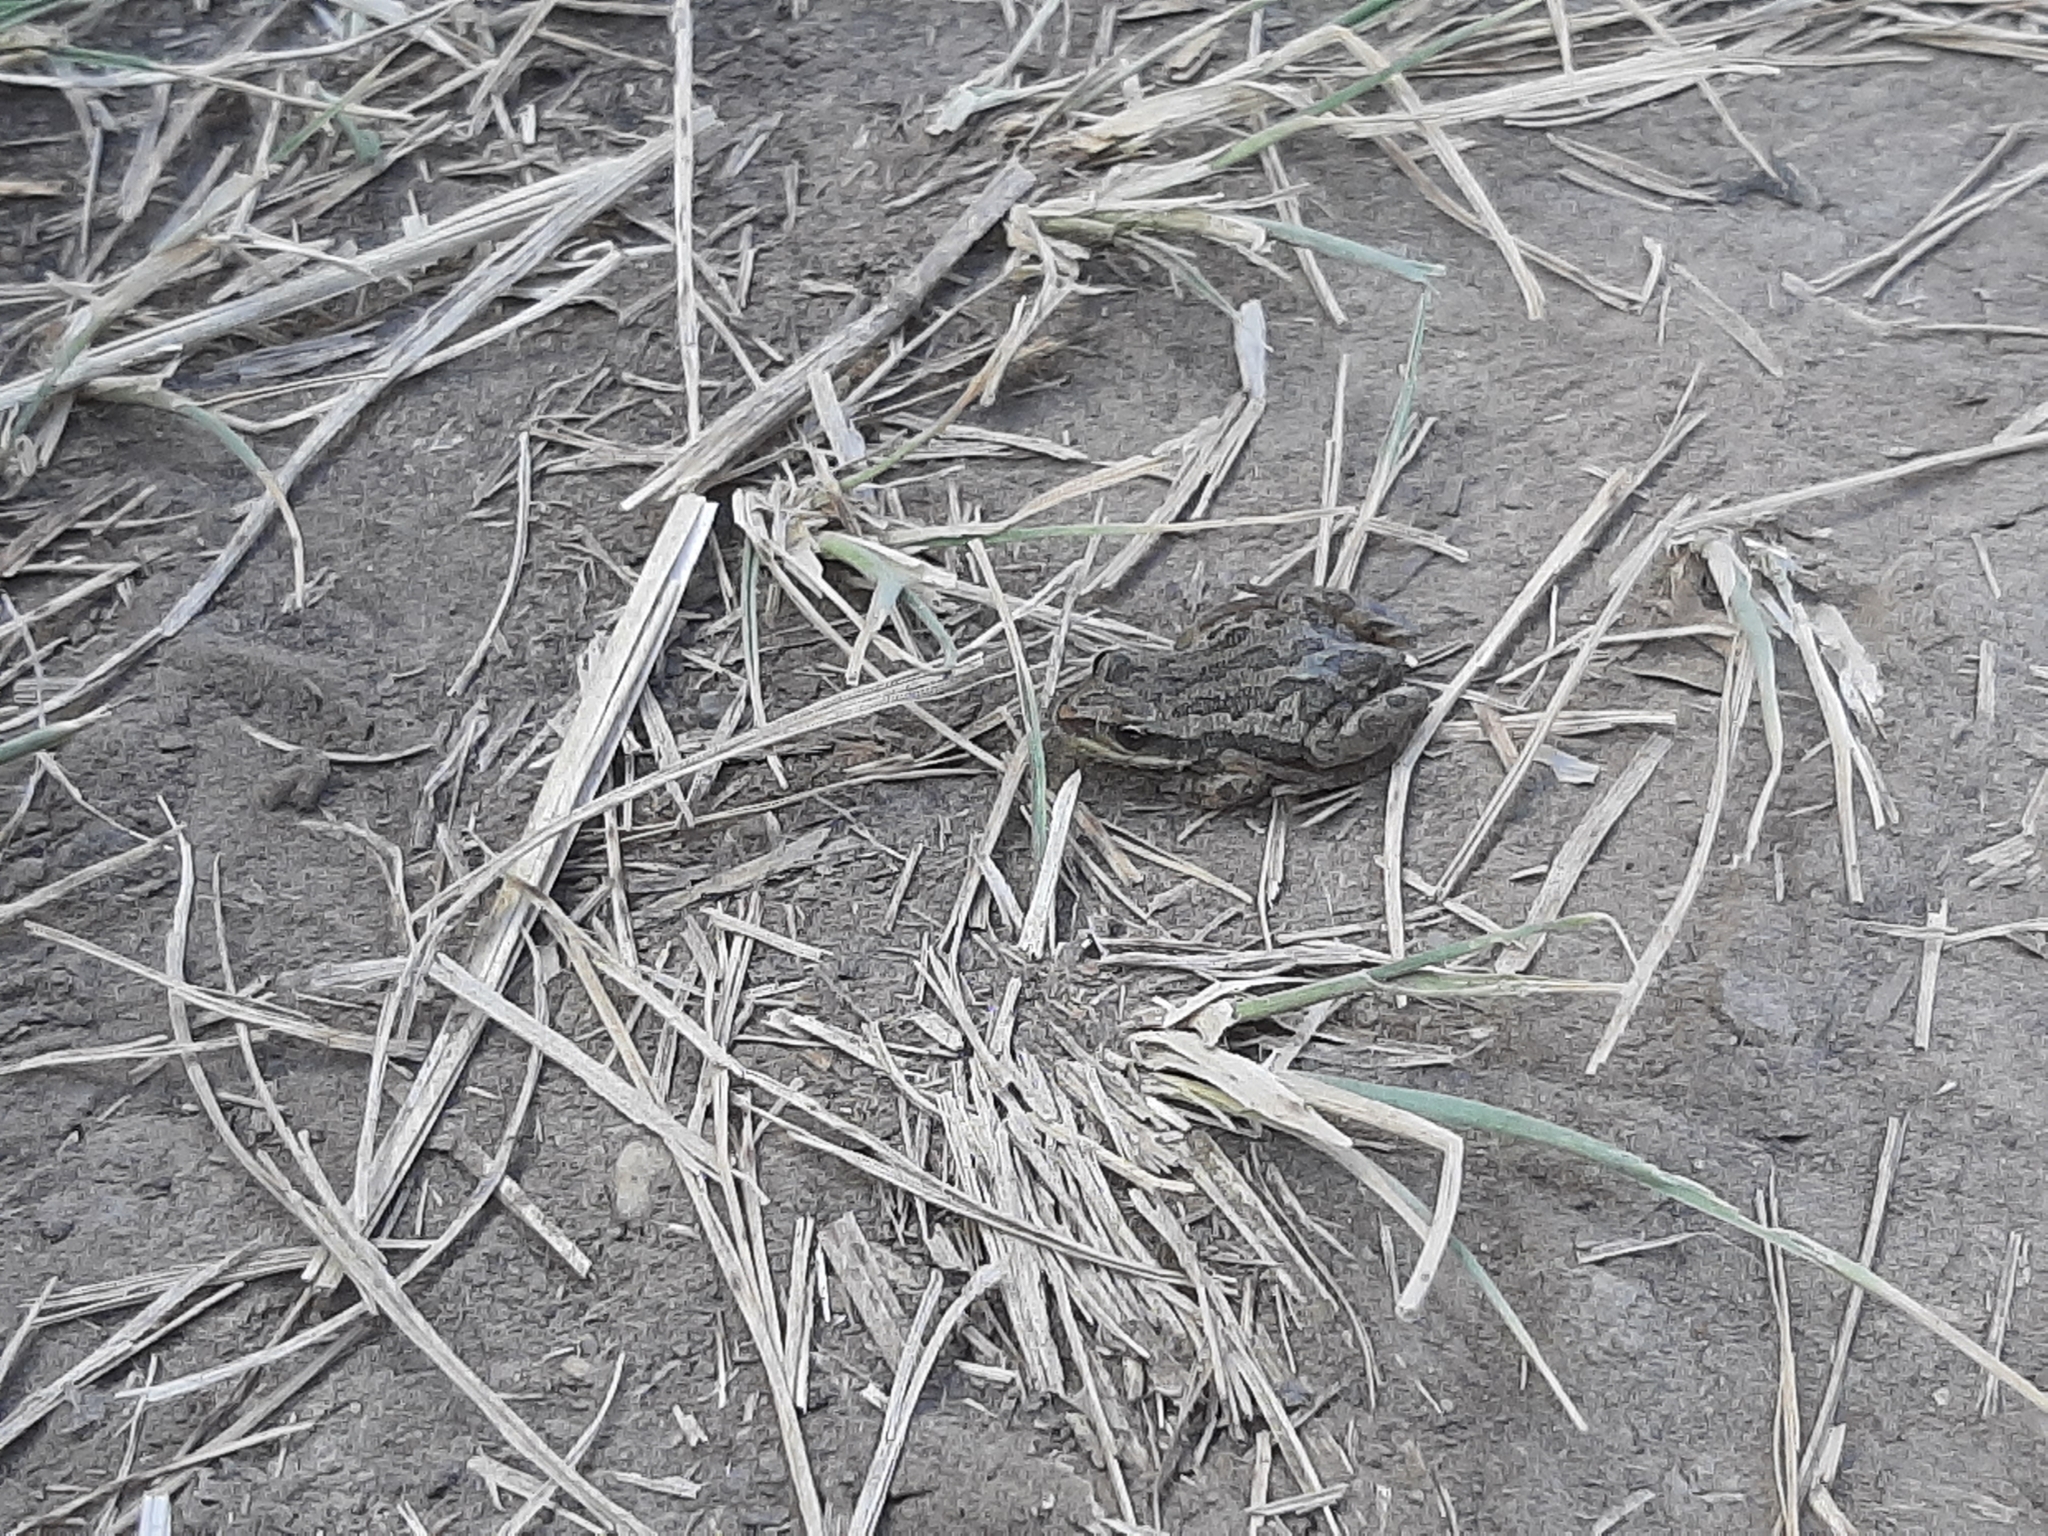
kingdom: Animalia
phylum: Chordata
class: Amphibia
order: Anura
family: Hylidae
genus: Pseudacris
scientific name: Pseudacris maculata
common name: Boreal chorus frog
